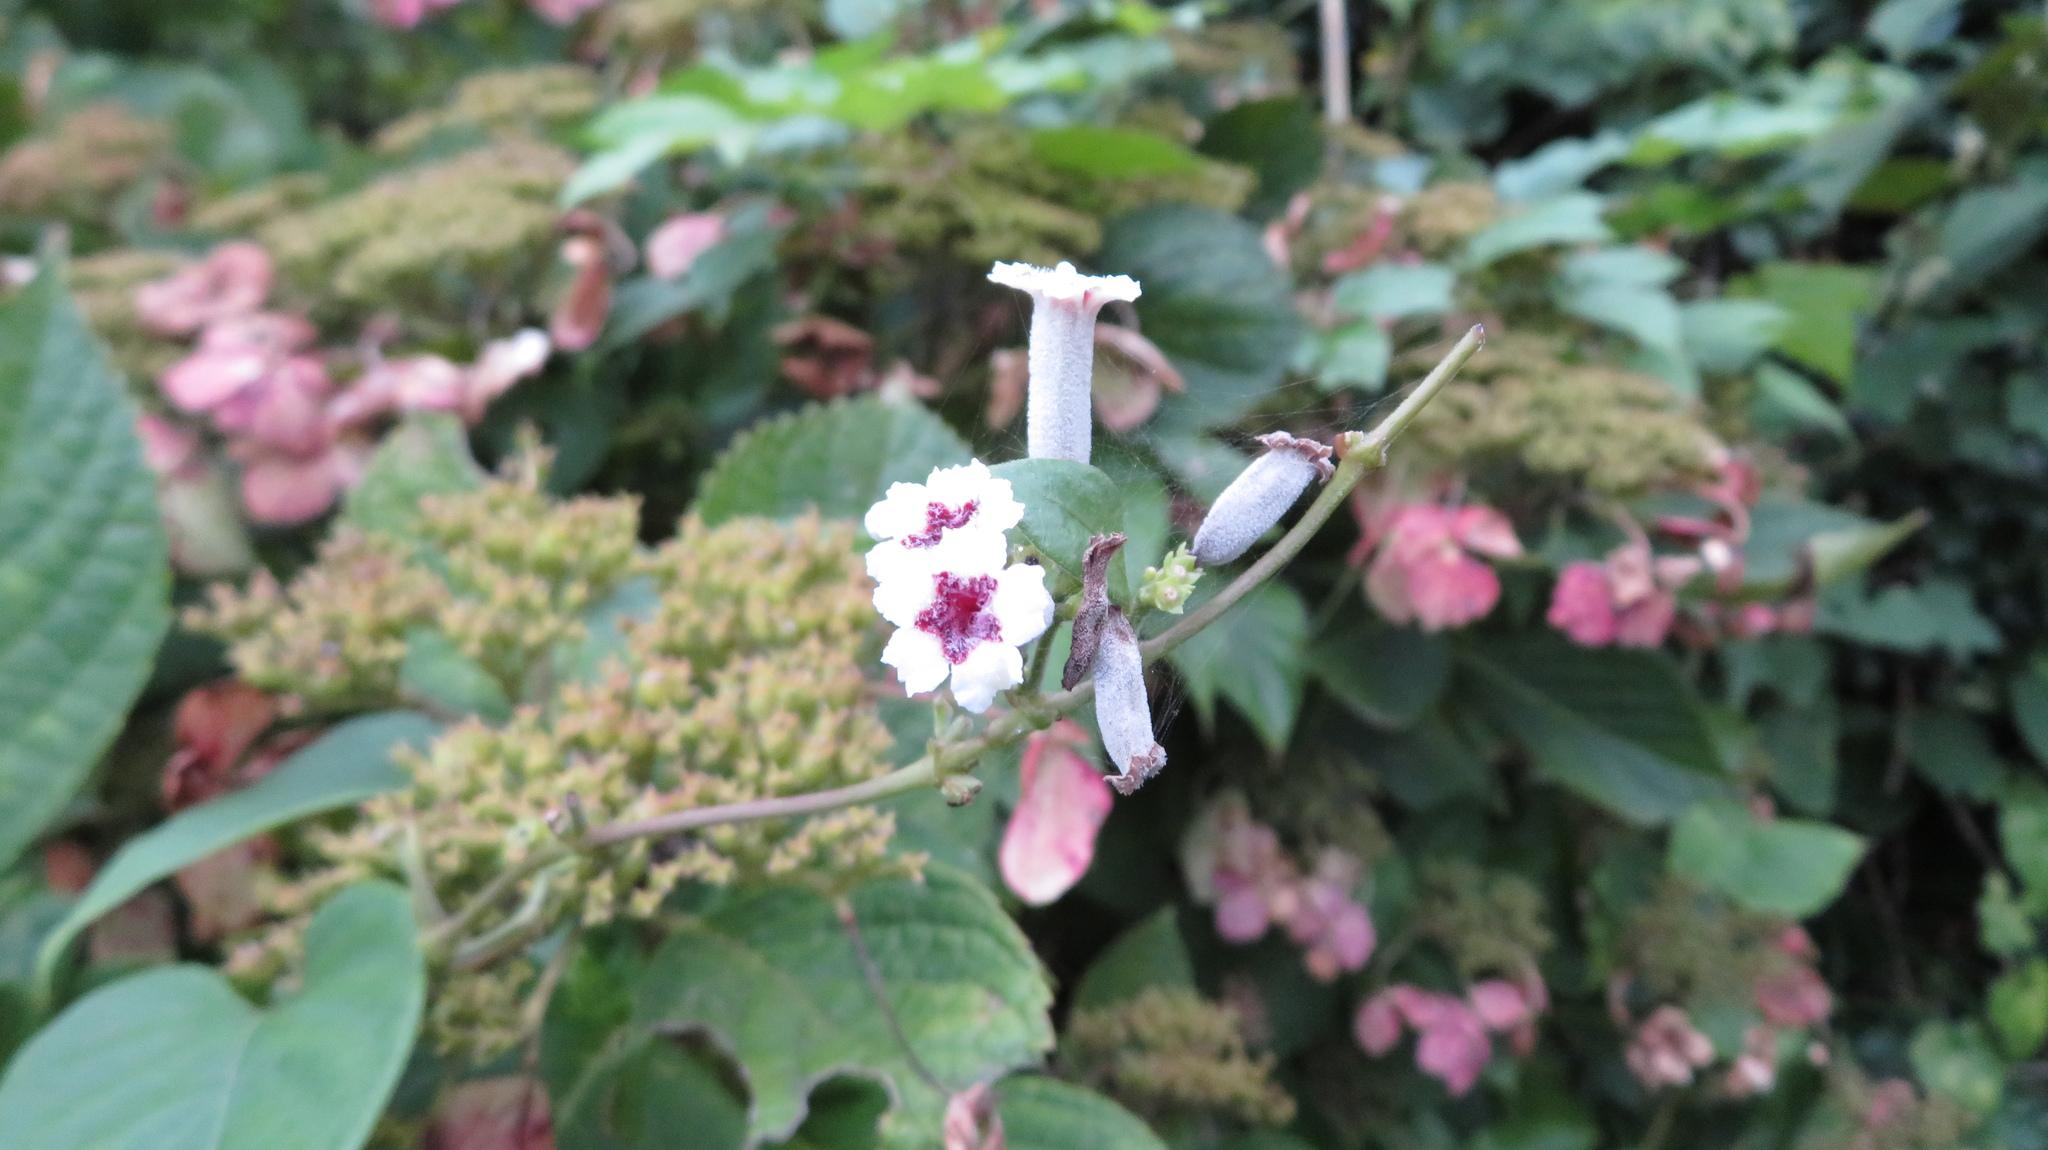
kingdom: Plantae
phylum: Tracheophyta
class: Magnoliopsida
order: Gentianales
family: Rubiaceae
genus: Paederia
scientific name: Paederia foetida
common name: Stinkvine
